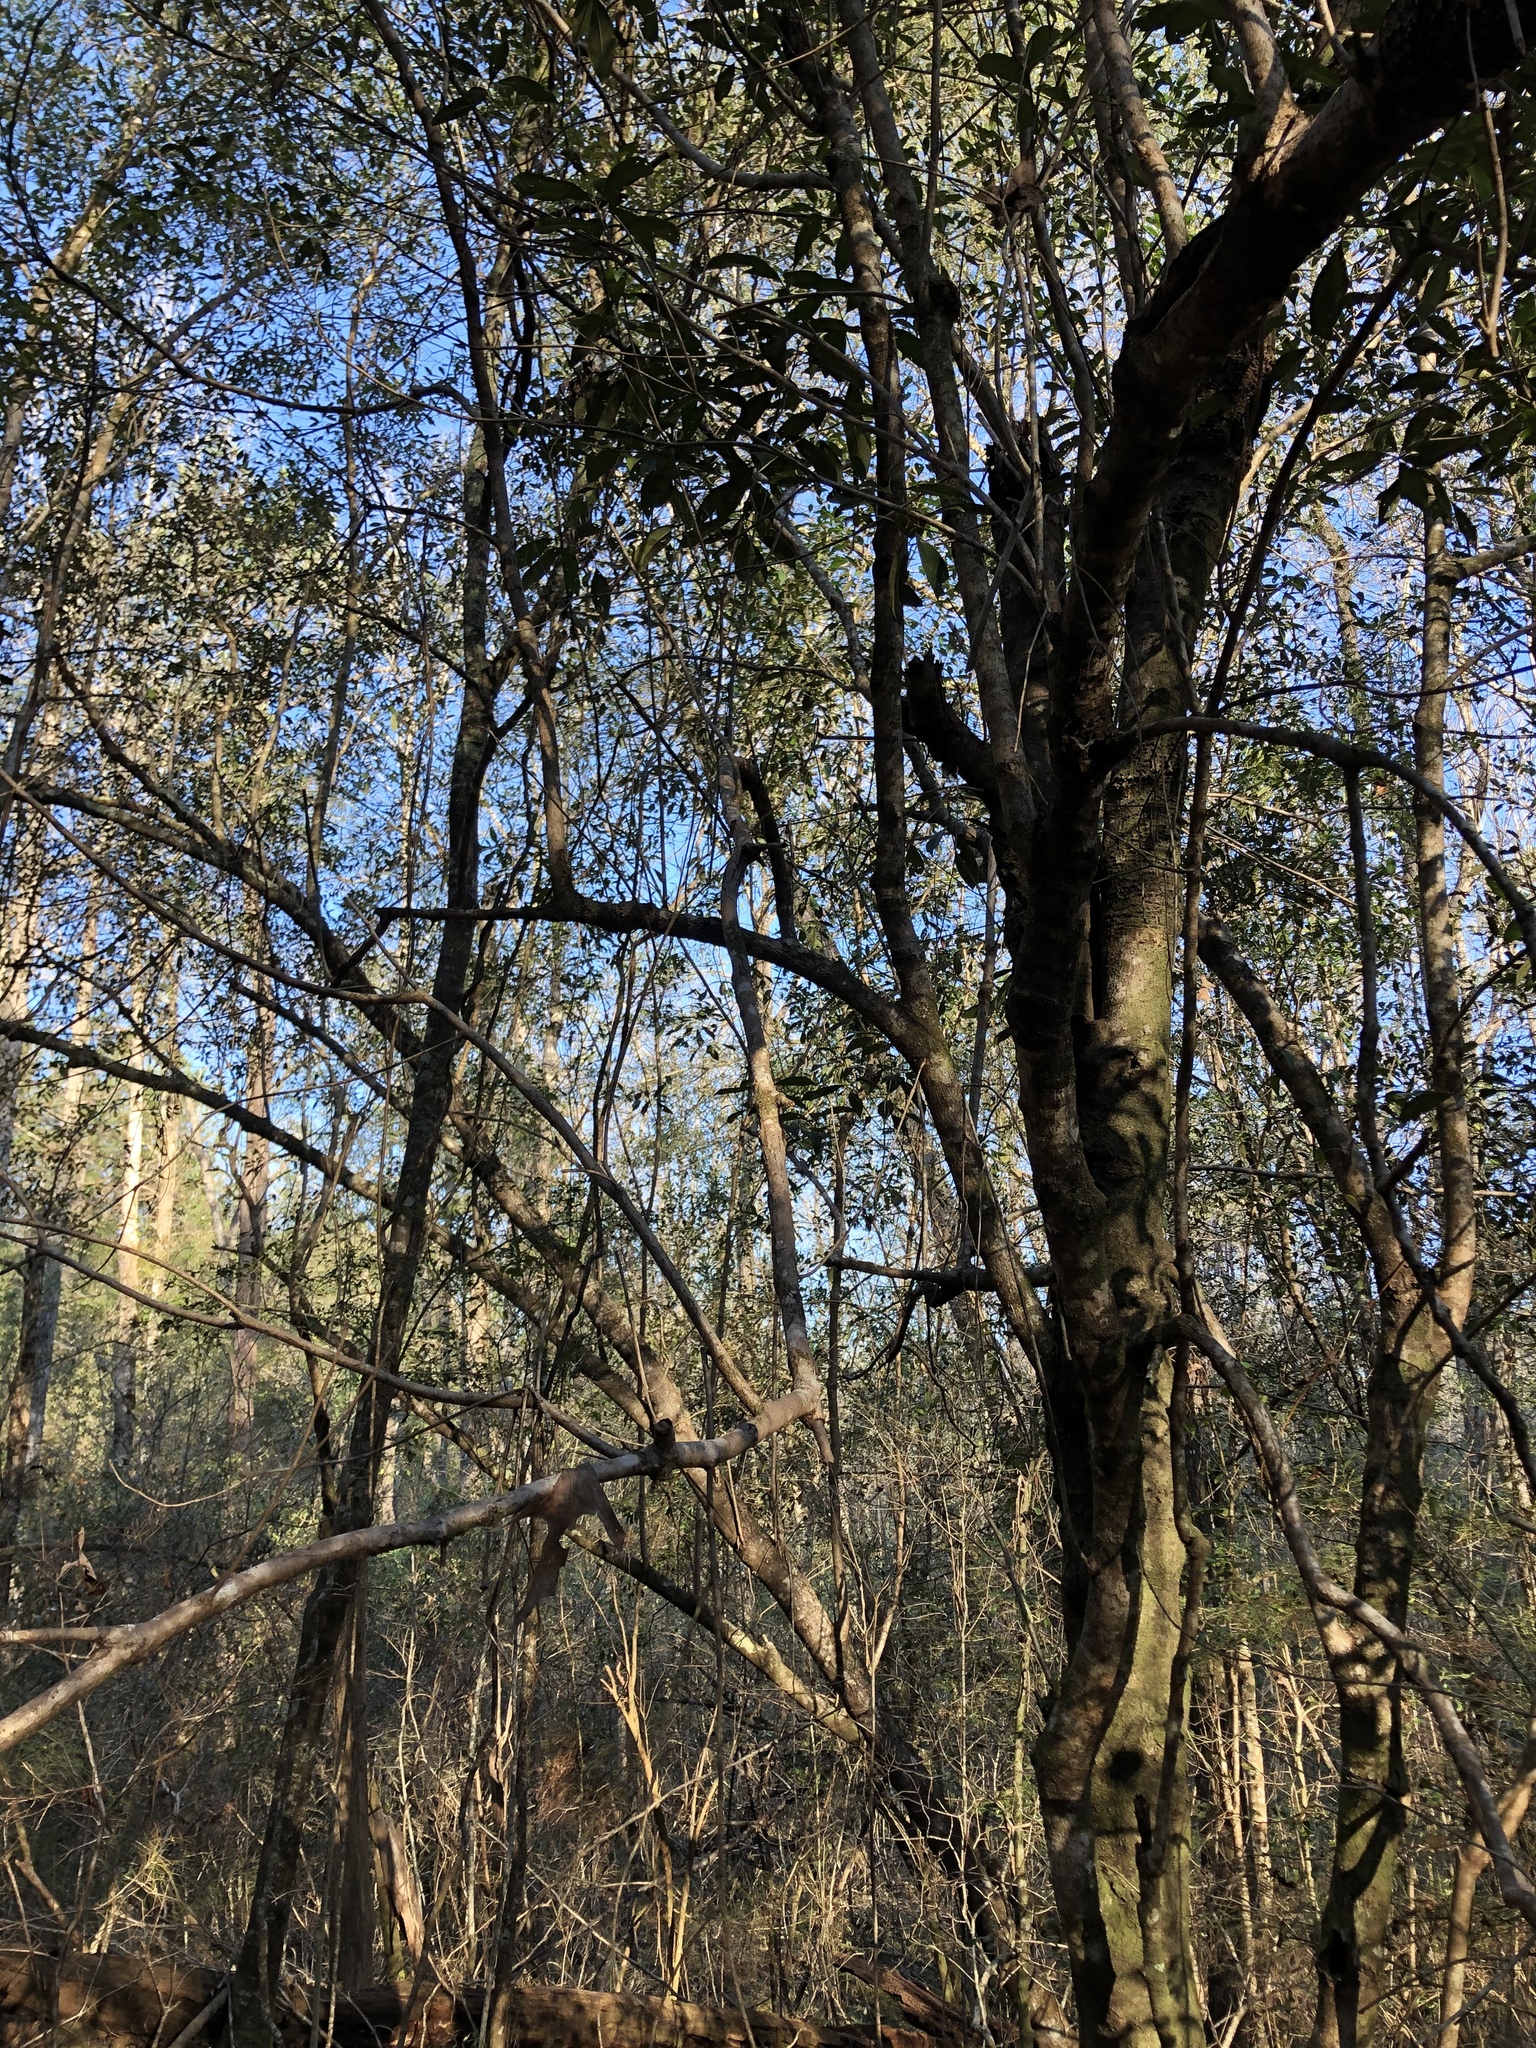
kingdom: Plantae
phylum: Tracheophyta
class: Magnoliopsida
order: Lamiales
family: Oleaceae
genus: Cartrema
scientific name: Cartrema americana
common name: Devilwood
